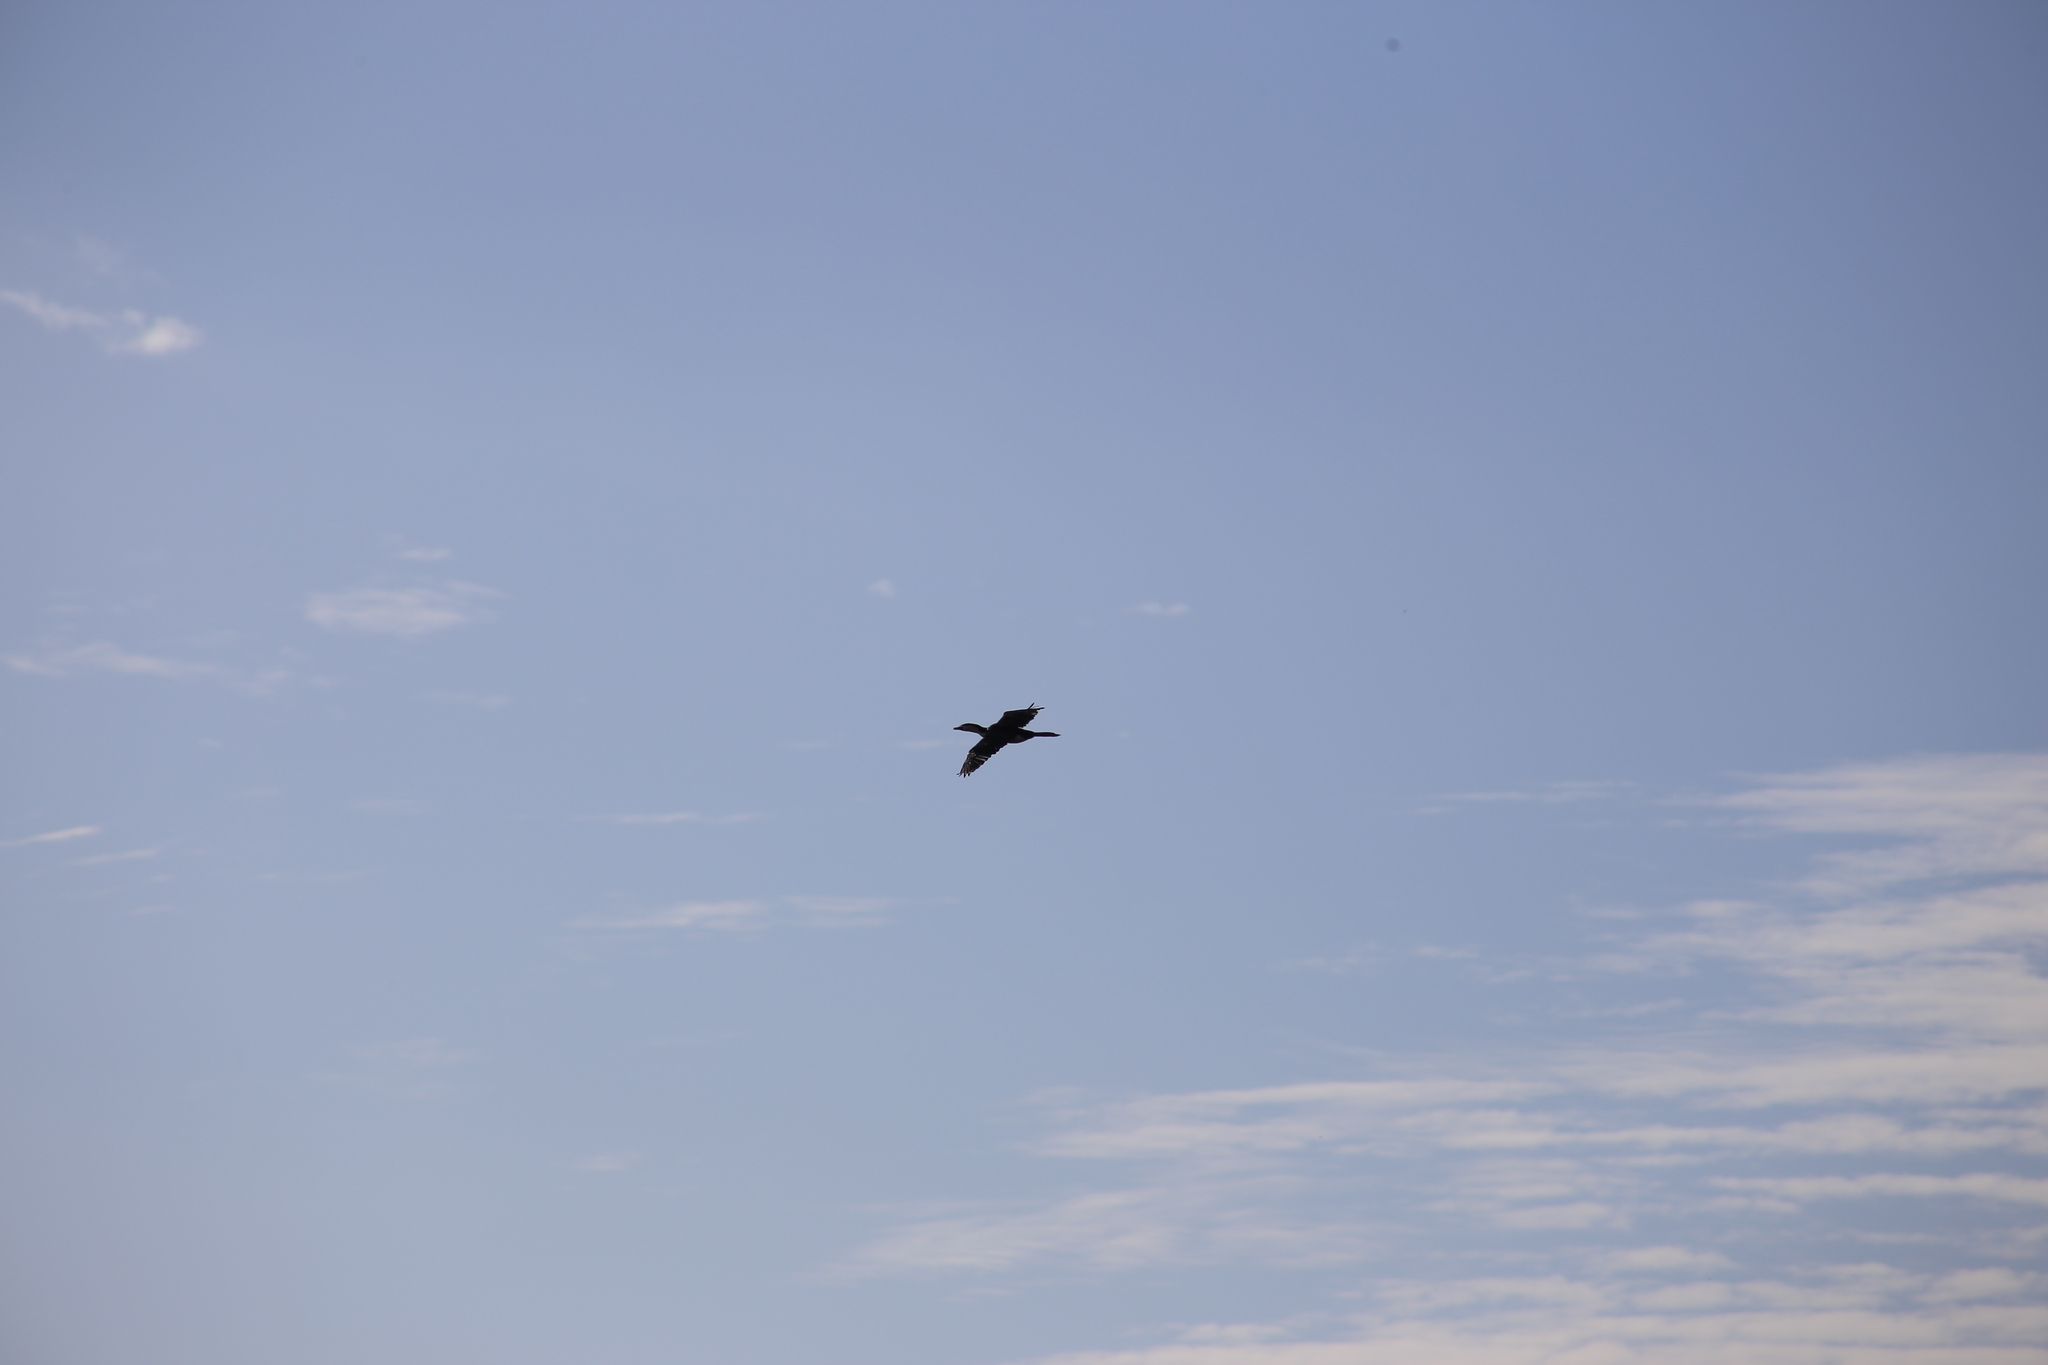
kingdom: Animalia
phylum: Chordata
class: Aves
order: Suliformes
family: Phalacrocoracidae
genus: Microcarbo
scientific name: Microcarbo melanoleucos
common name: Little pied cormorant
